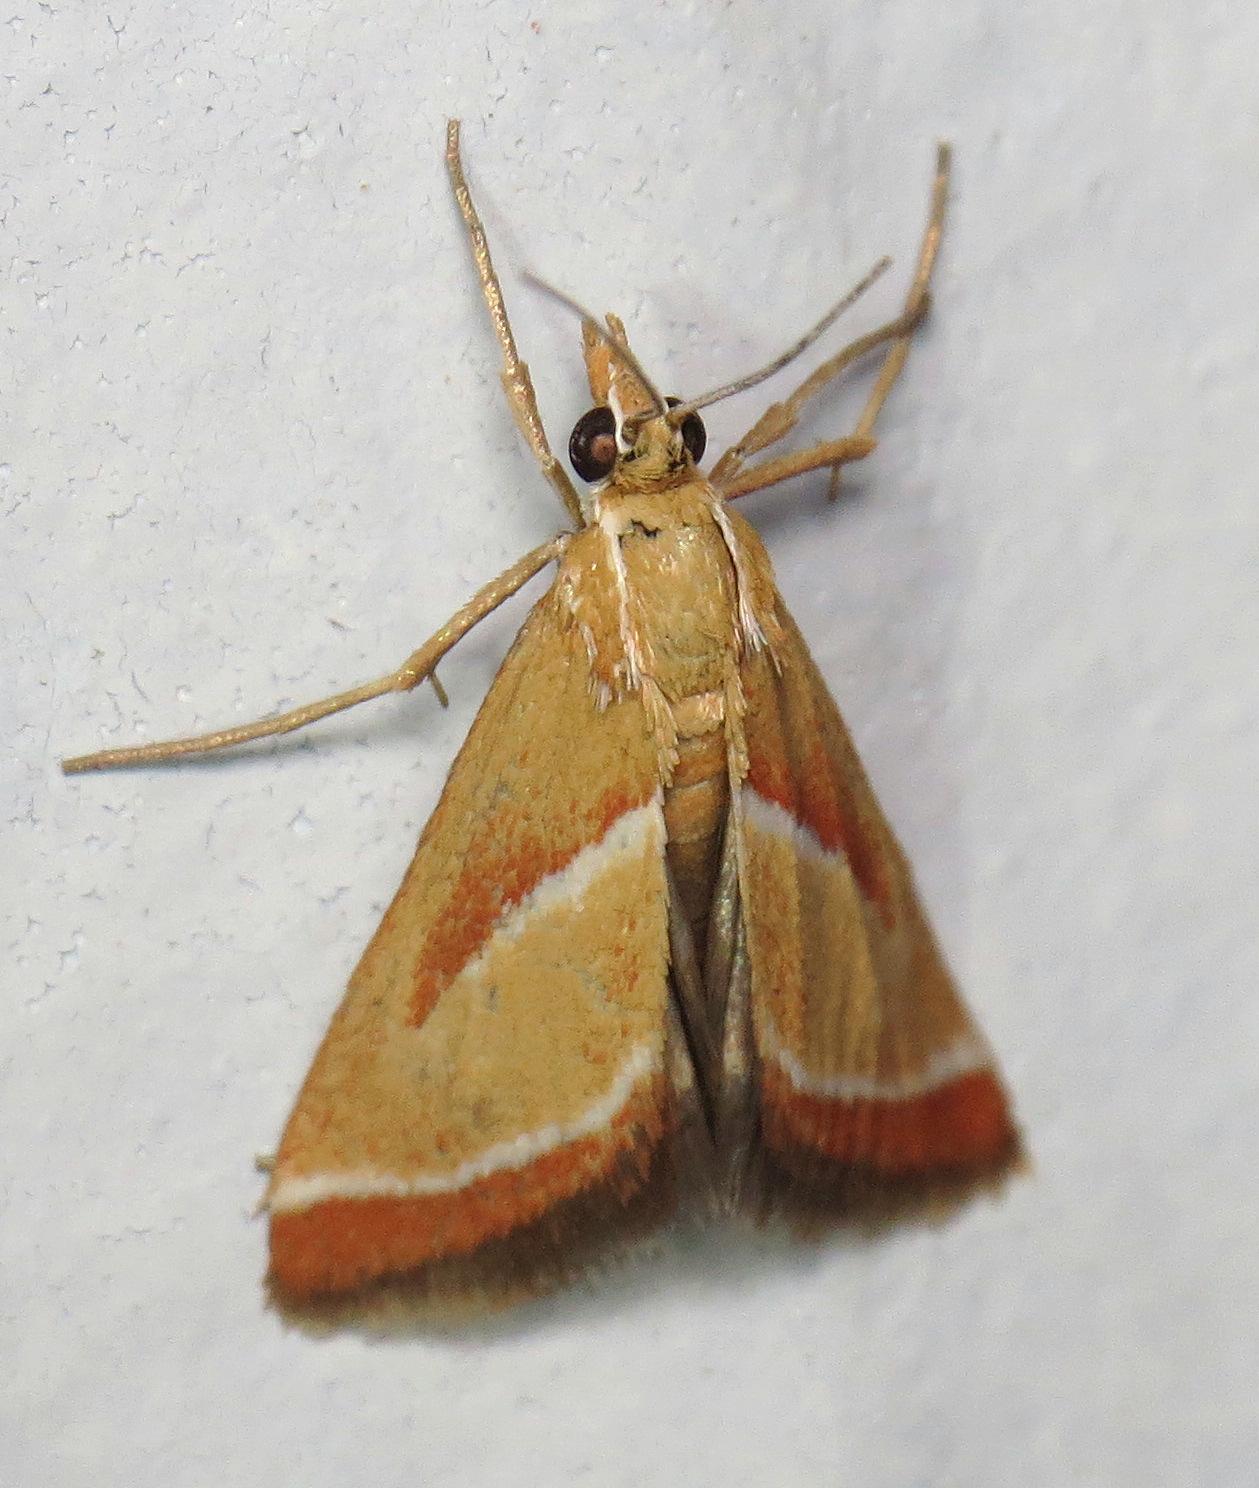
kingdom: Animalia
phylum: Arthropoda
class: Insecta
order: Lepidoptera
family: Crambidae
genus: Rhodocantha
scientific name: Rhodocantha diagonalis
